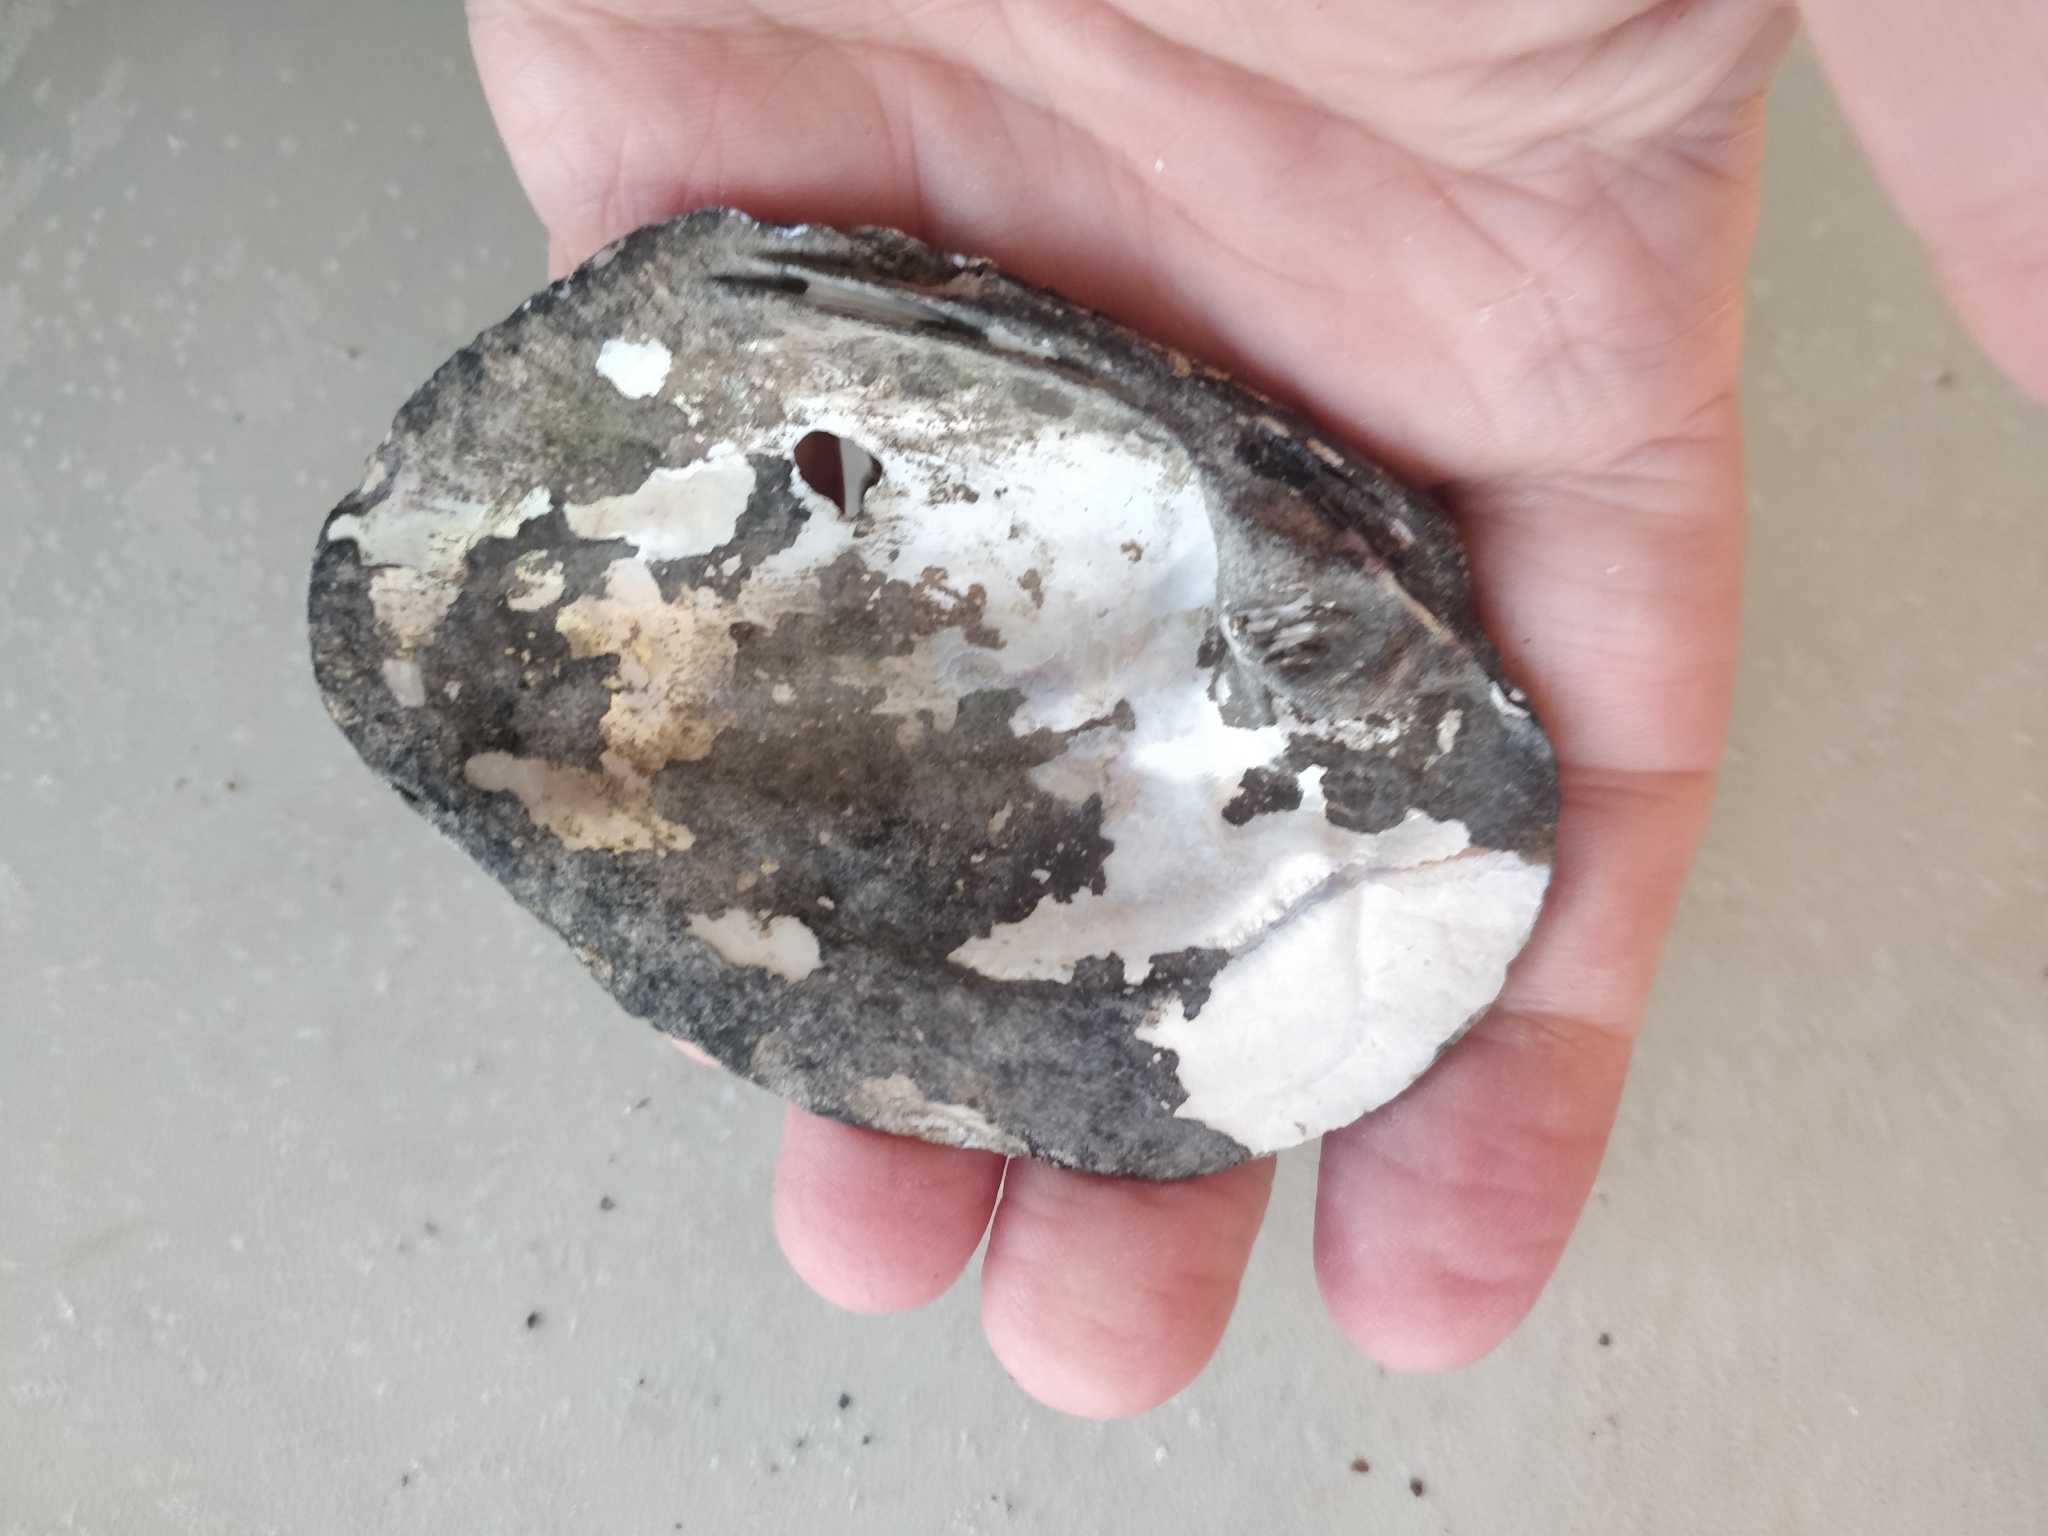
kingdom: Animalia
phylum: Mollusca
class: Bivalvia
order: Unionida
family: Unionidae
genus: Amblema
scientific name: Amblema plicata
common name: Threeridge
